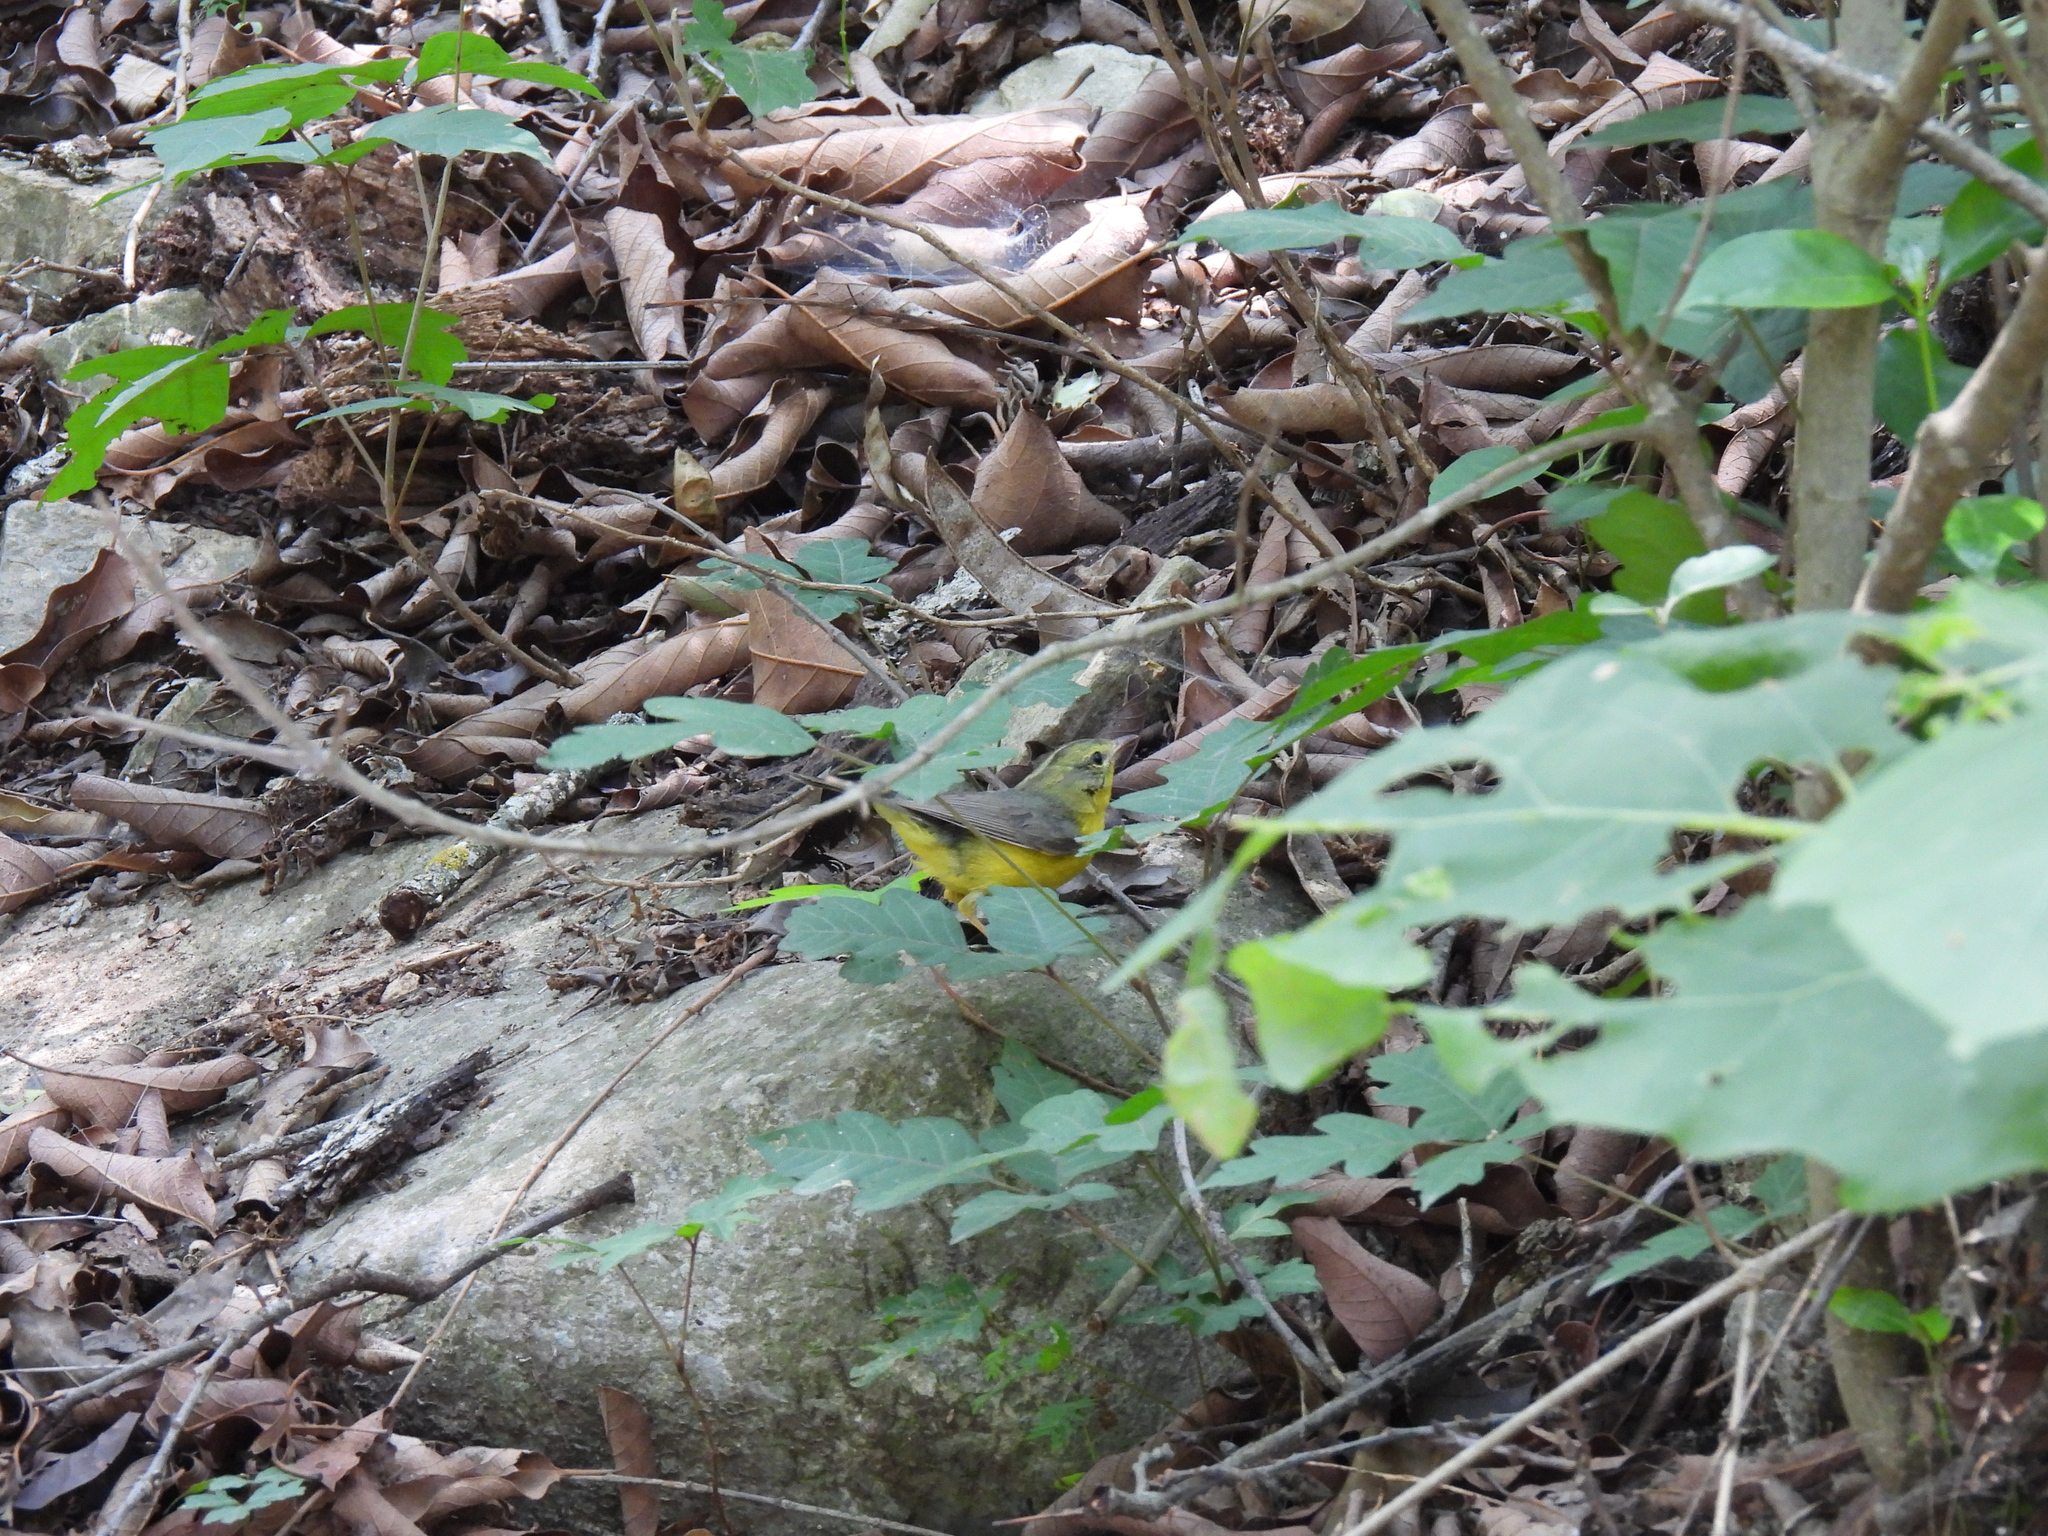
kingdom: Animalia
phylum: Chordata
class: Aves
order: Passeriformes
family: Parulidae
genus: Basileuterus
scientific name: Basileuterus culicivorus
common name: Golden-crowned warbler
